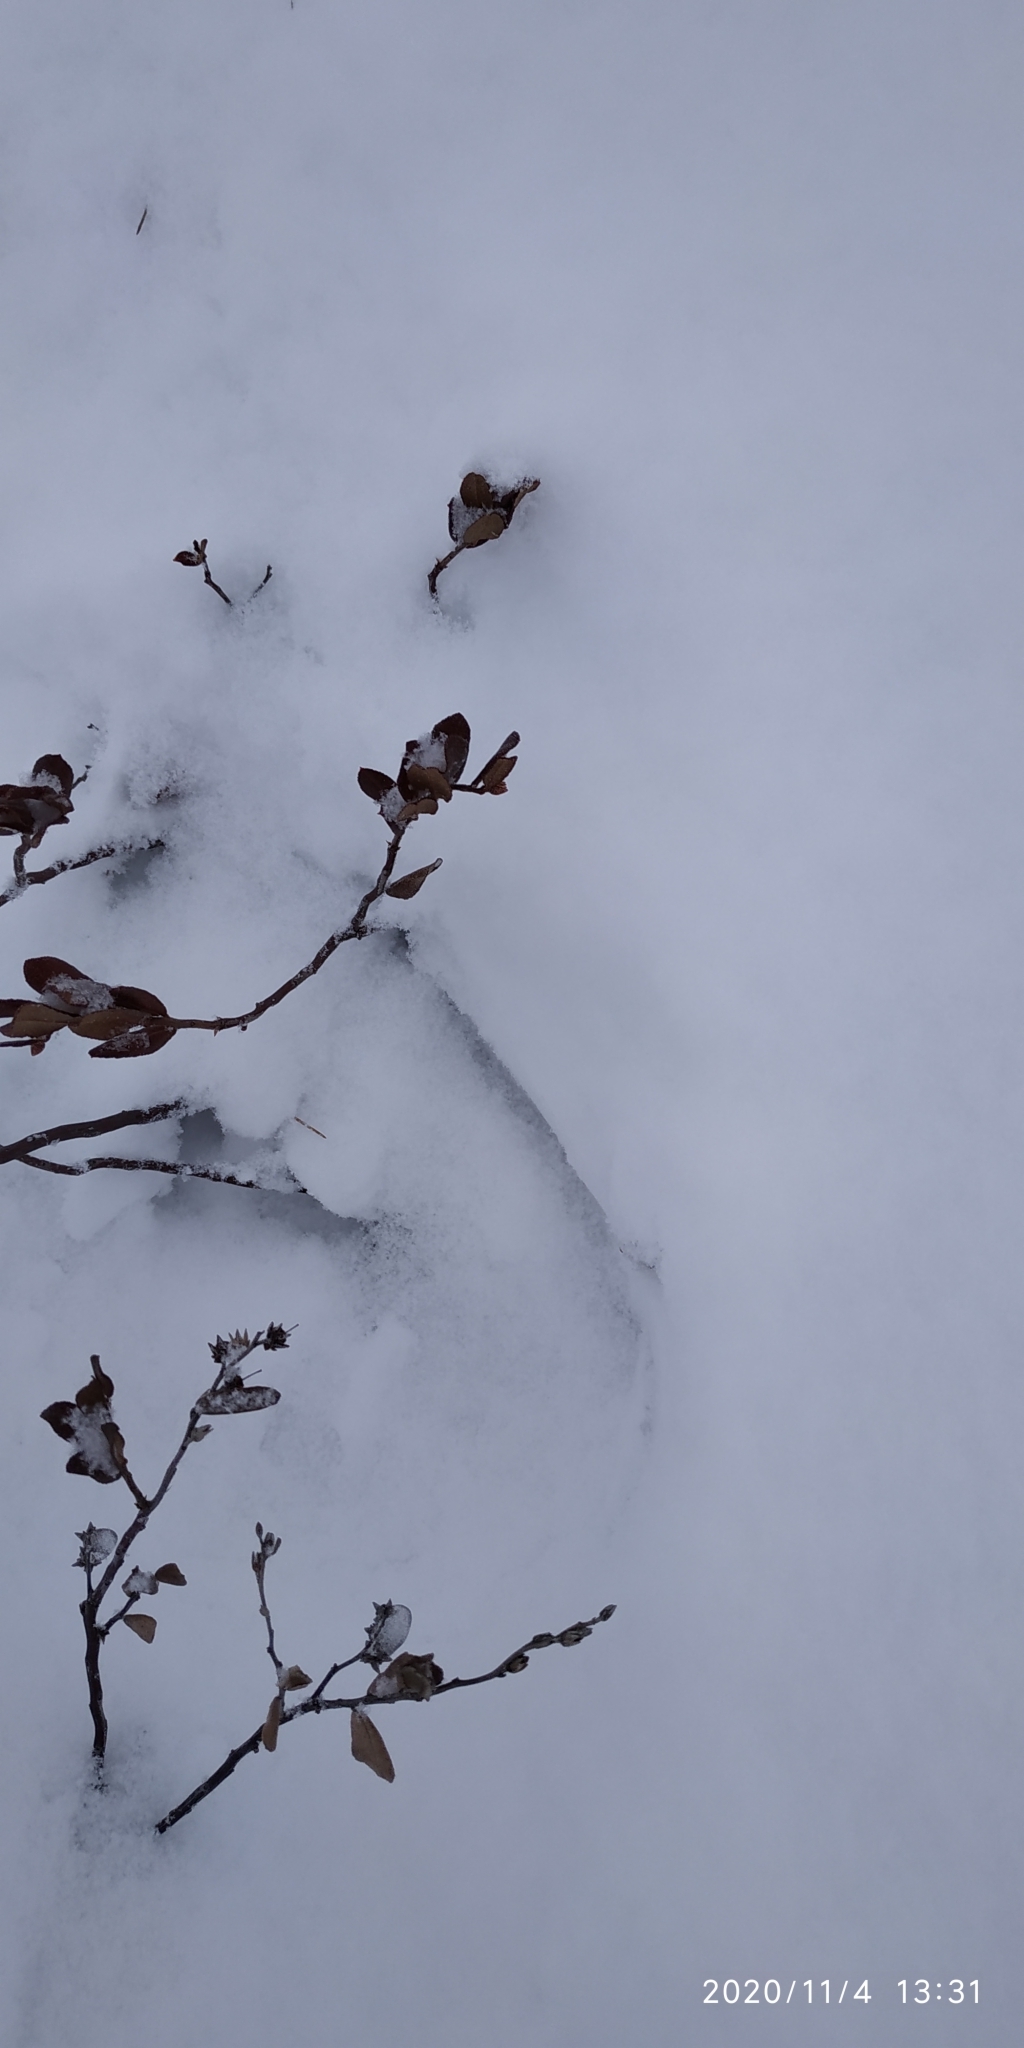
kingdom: Plantae
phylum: Tracheophyta
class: Magnoliopsida
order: Ericales
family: Ericaceae
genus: Chamaedaphne
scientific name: Chamaedaphne calyculata
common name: Leatherleaf
